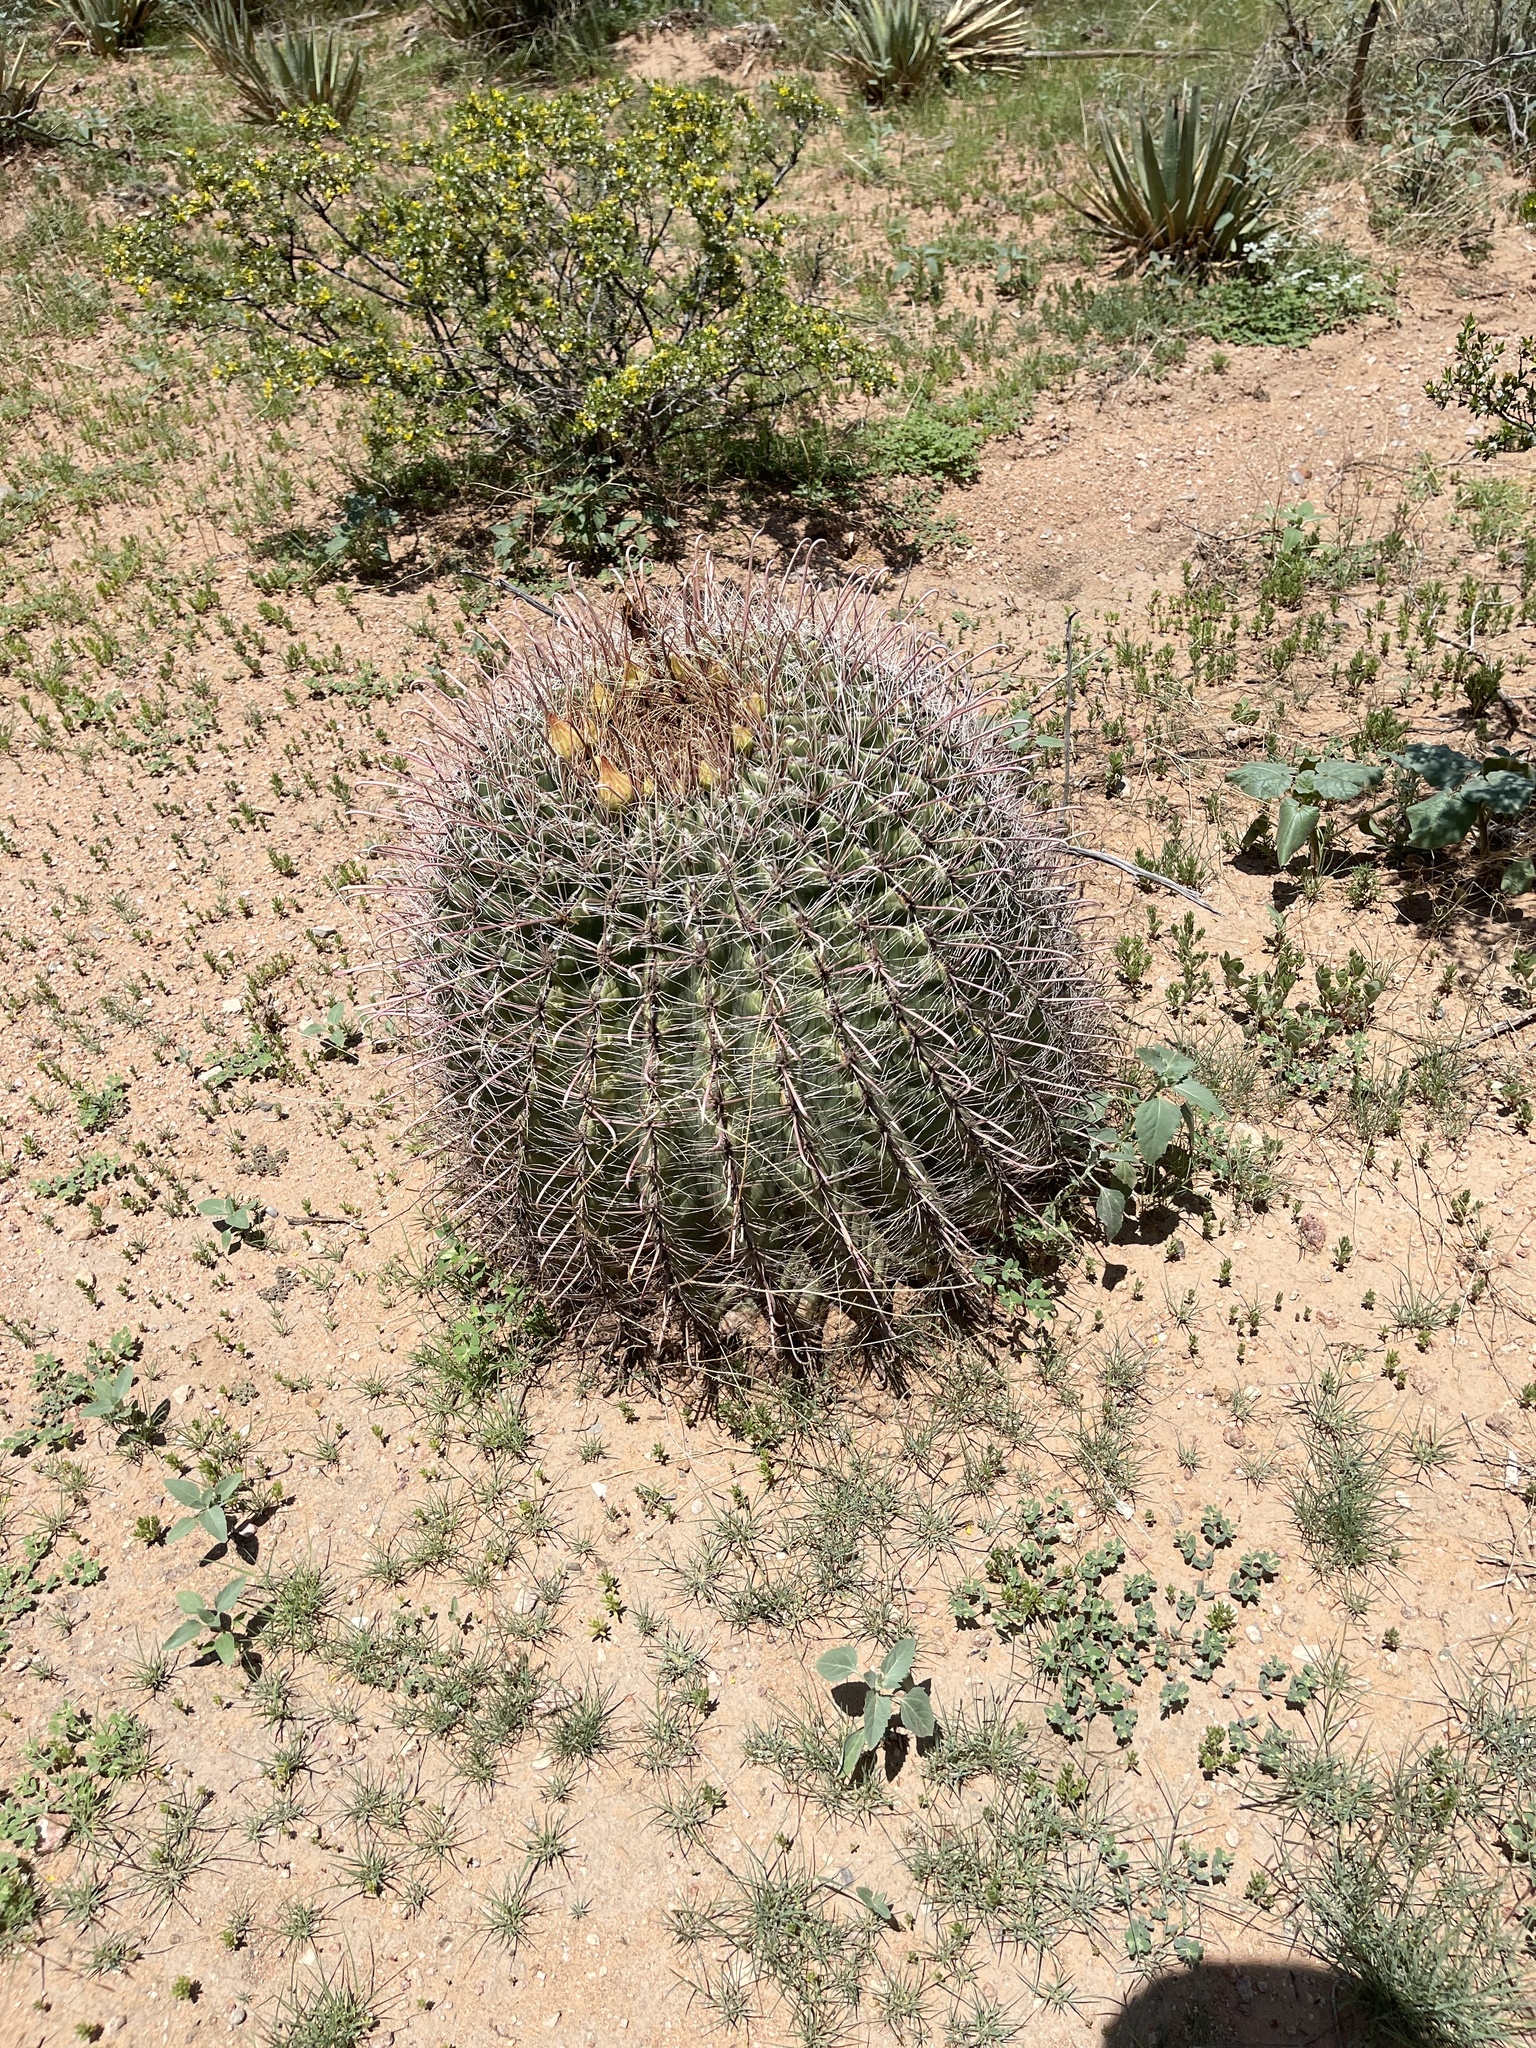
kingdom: Plantae
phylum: Tracheophyta
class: Magnoliopsida
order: Caryophyllales
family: Cactaceae
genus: Ferocactus
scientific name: Ferocactus wislizeni
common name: Candy barrel cactus
